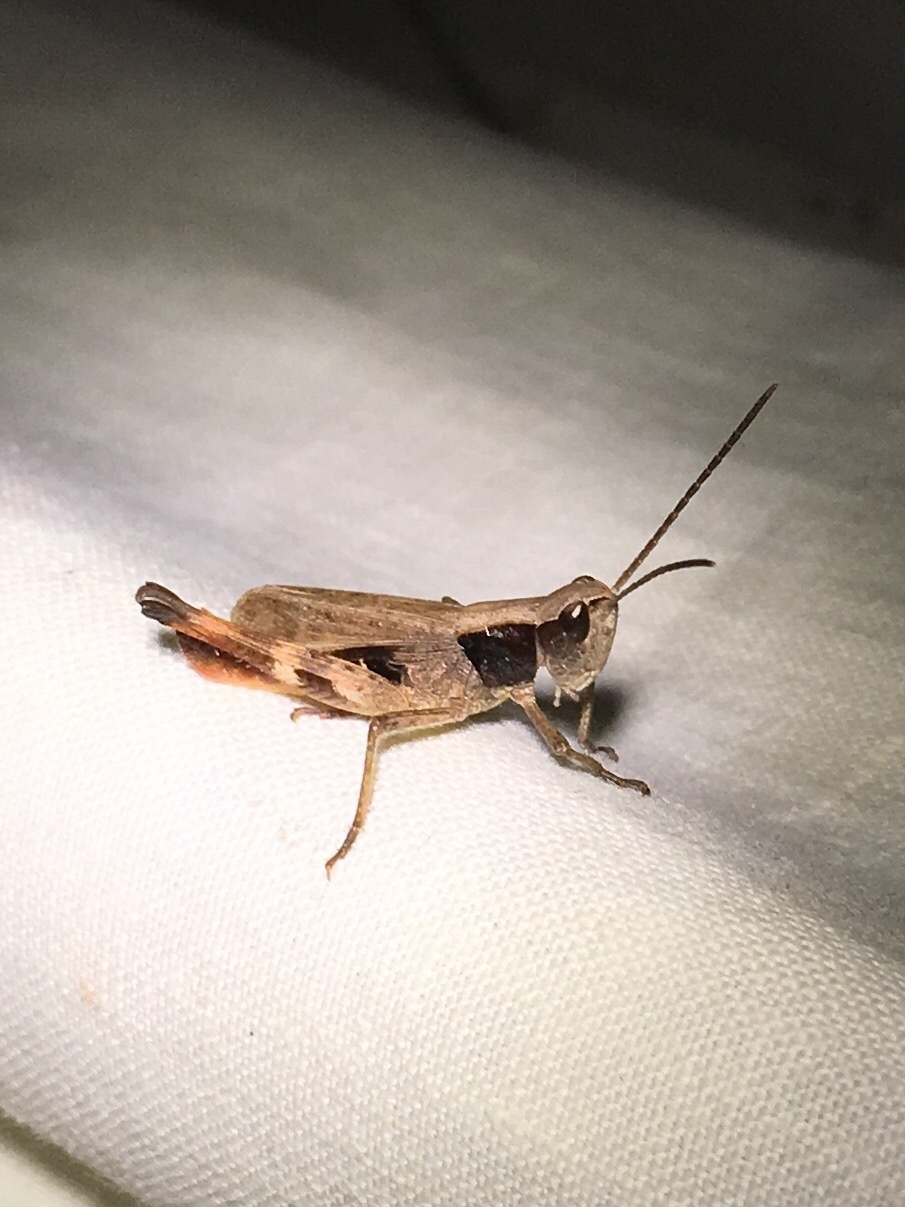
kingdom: Animalia
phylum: Arthropoda
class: Insecta
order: Orthoptera
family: Acrididae
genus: Chloealtis
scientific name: Chloealtis conspersa
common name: Sprinkled broad-winged grasshopper
